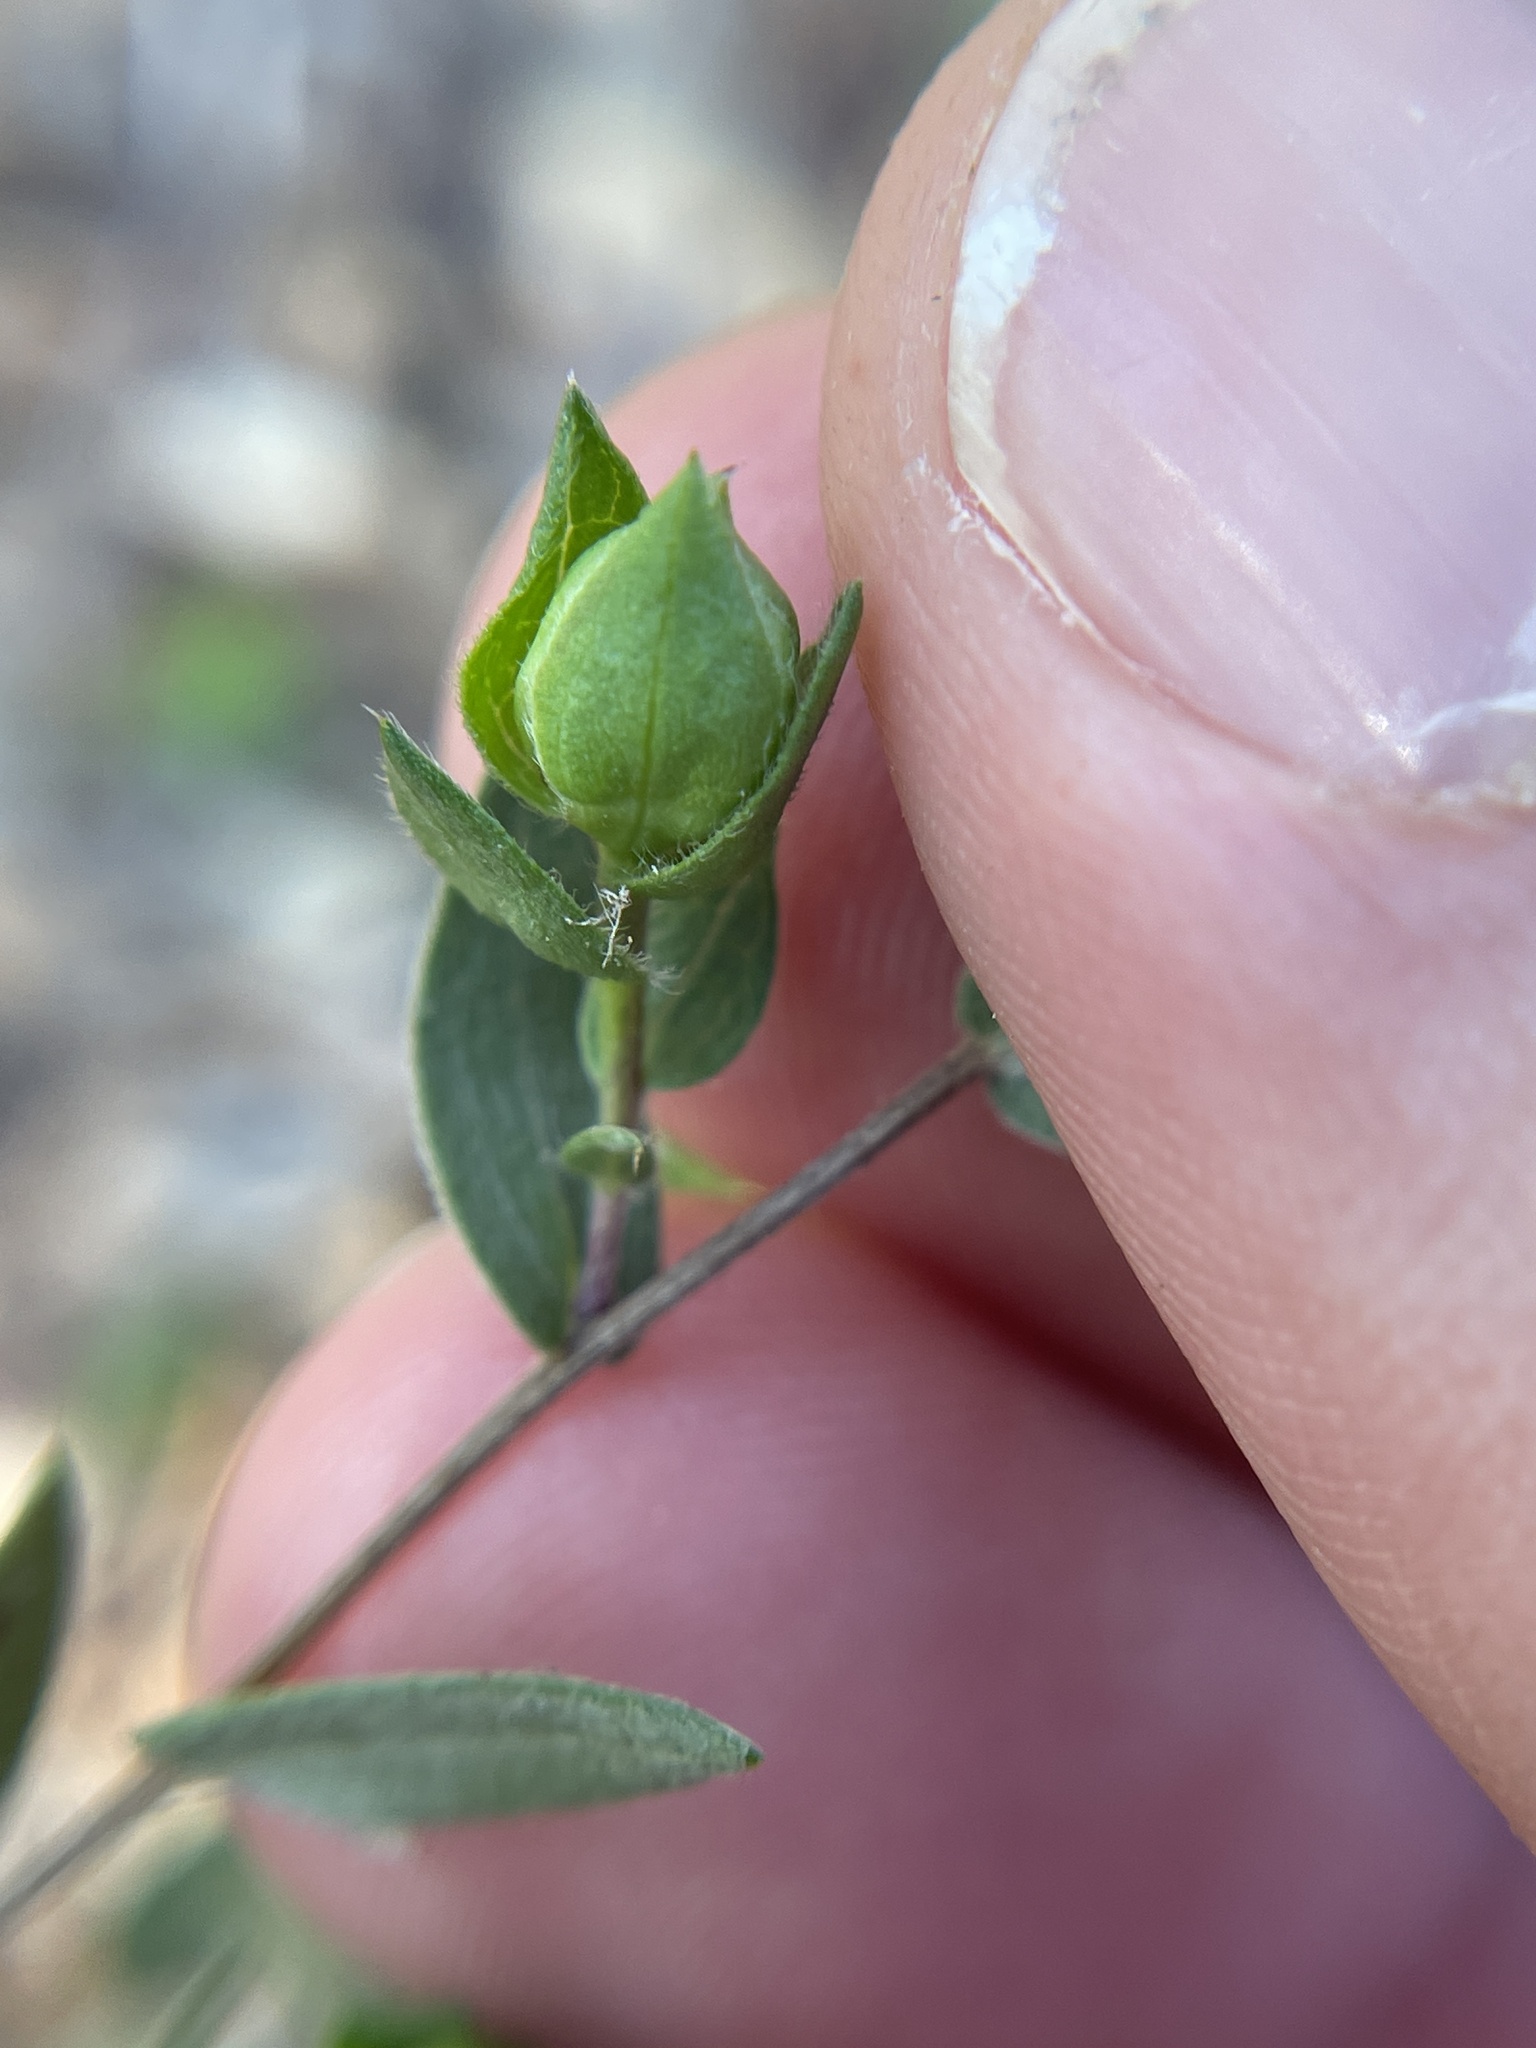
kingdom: Plantae
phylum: Tracheophyta
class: Magnoliopsida
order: Asterales
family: Asteraceae
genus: Symphyotrichum
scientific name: Symphyotrichum pratense
